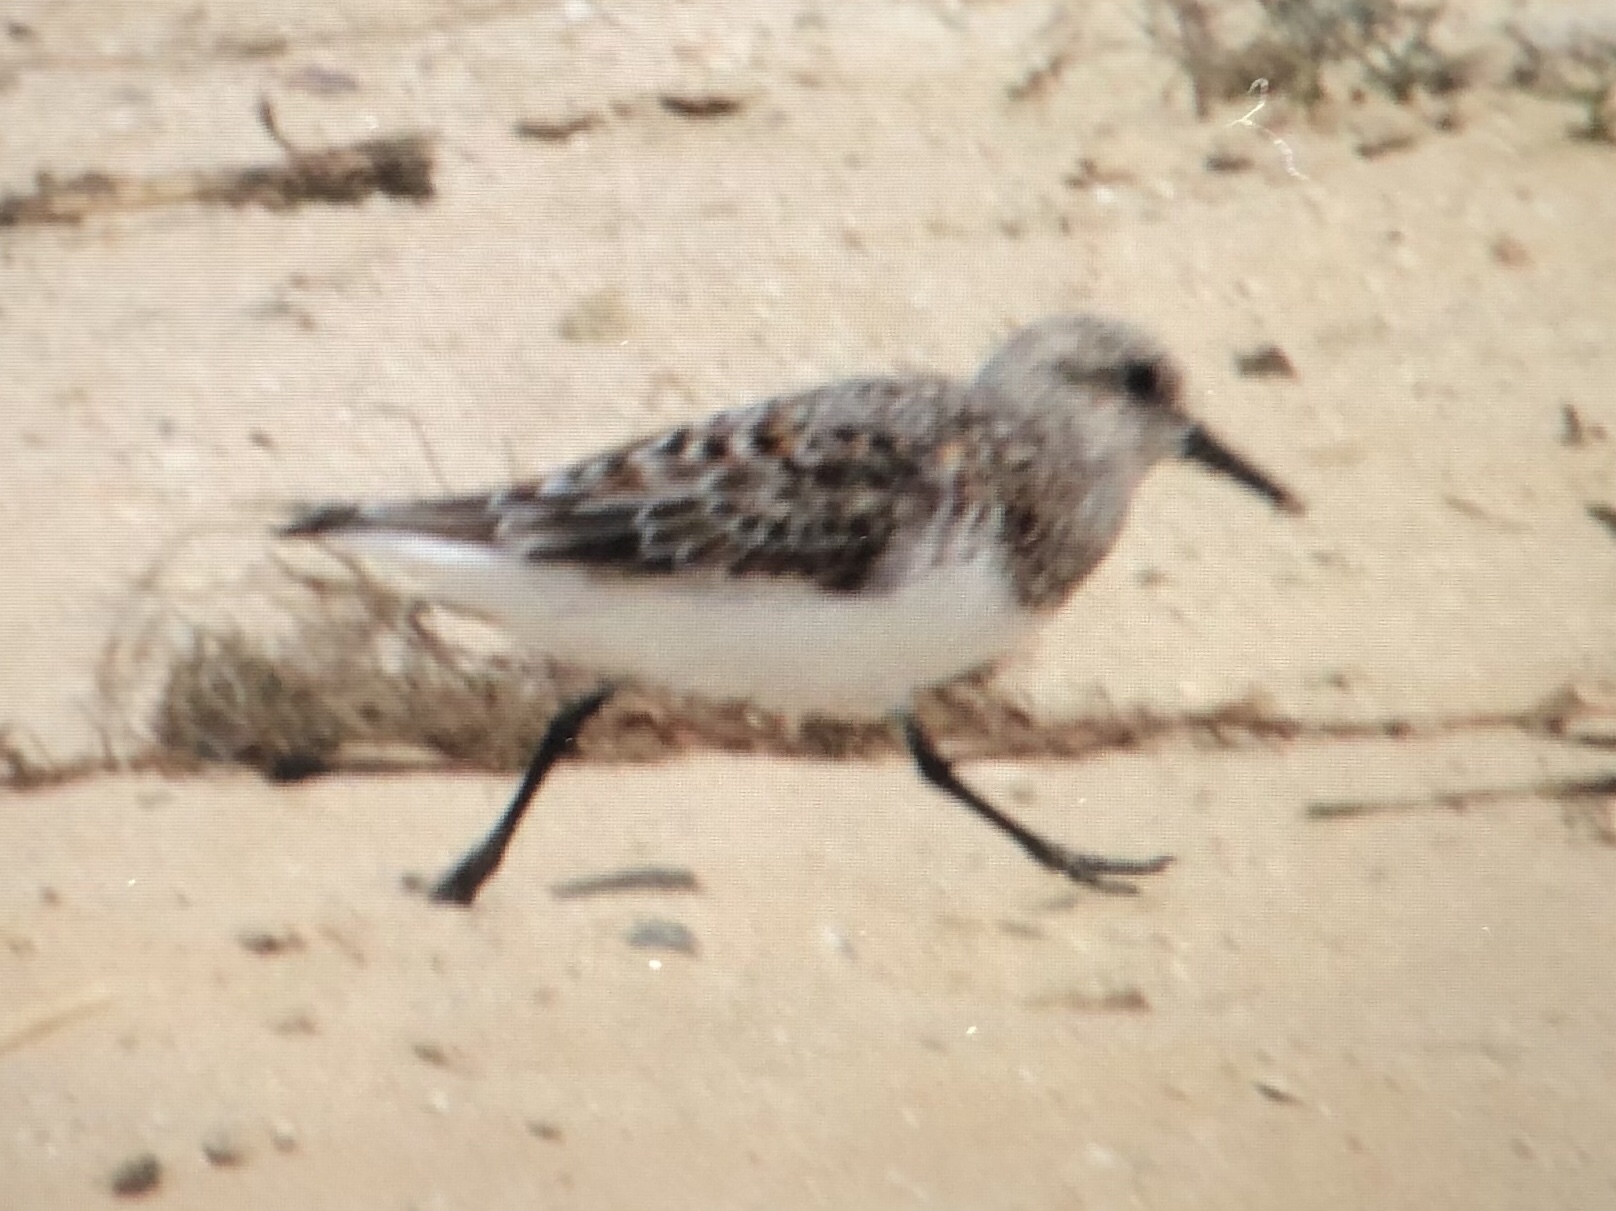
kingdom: Animalia
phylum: Chordata
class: Aves
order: Charadriiformes
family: Scolopacidae
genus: Calidris
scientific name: Calidris alba
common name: Sanderling
